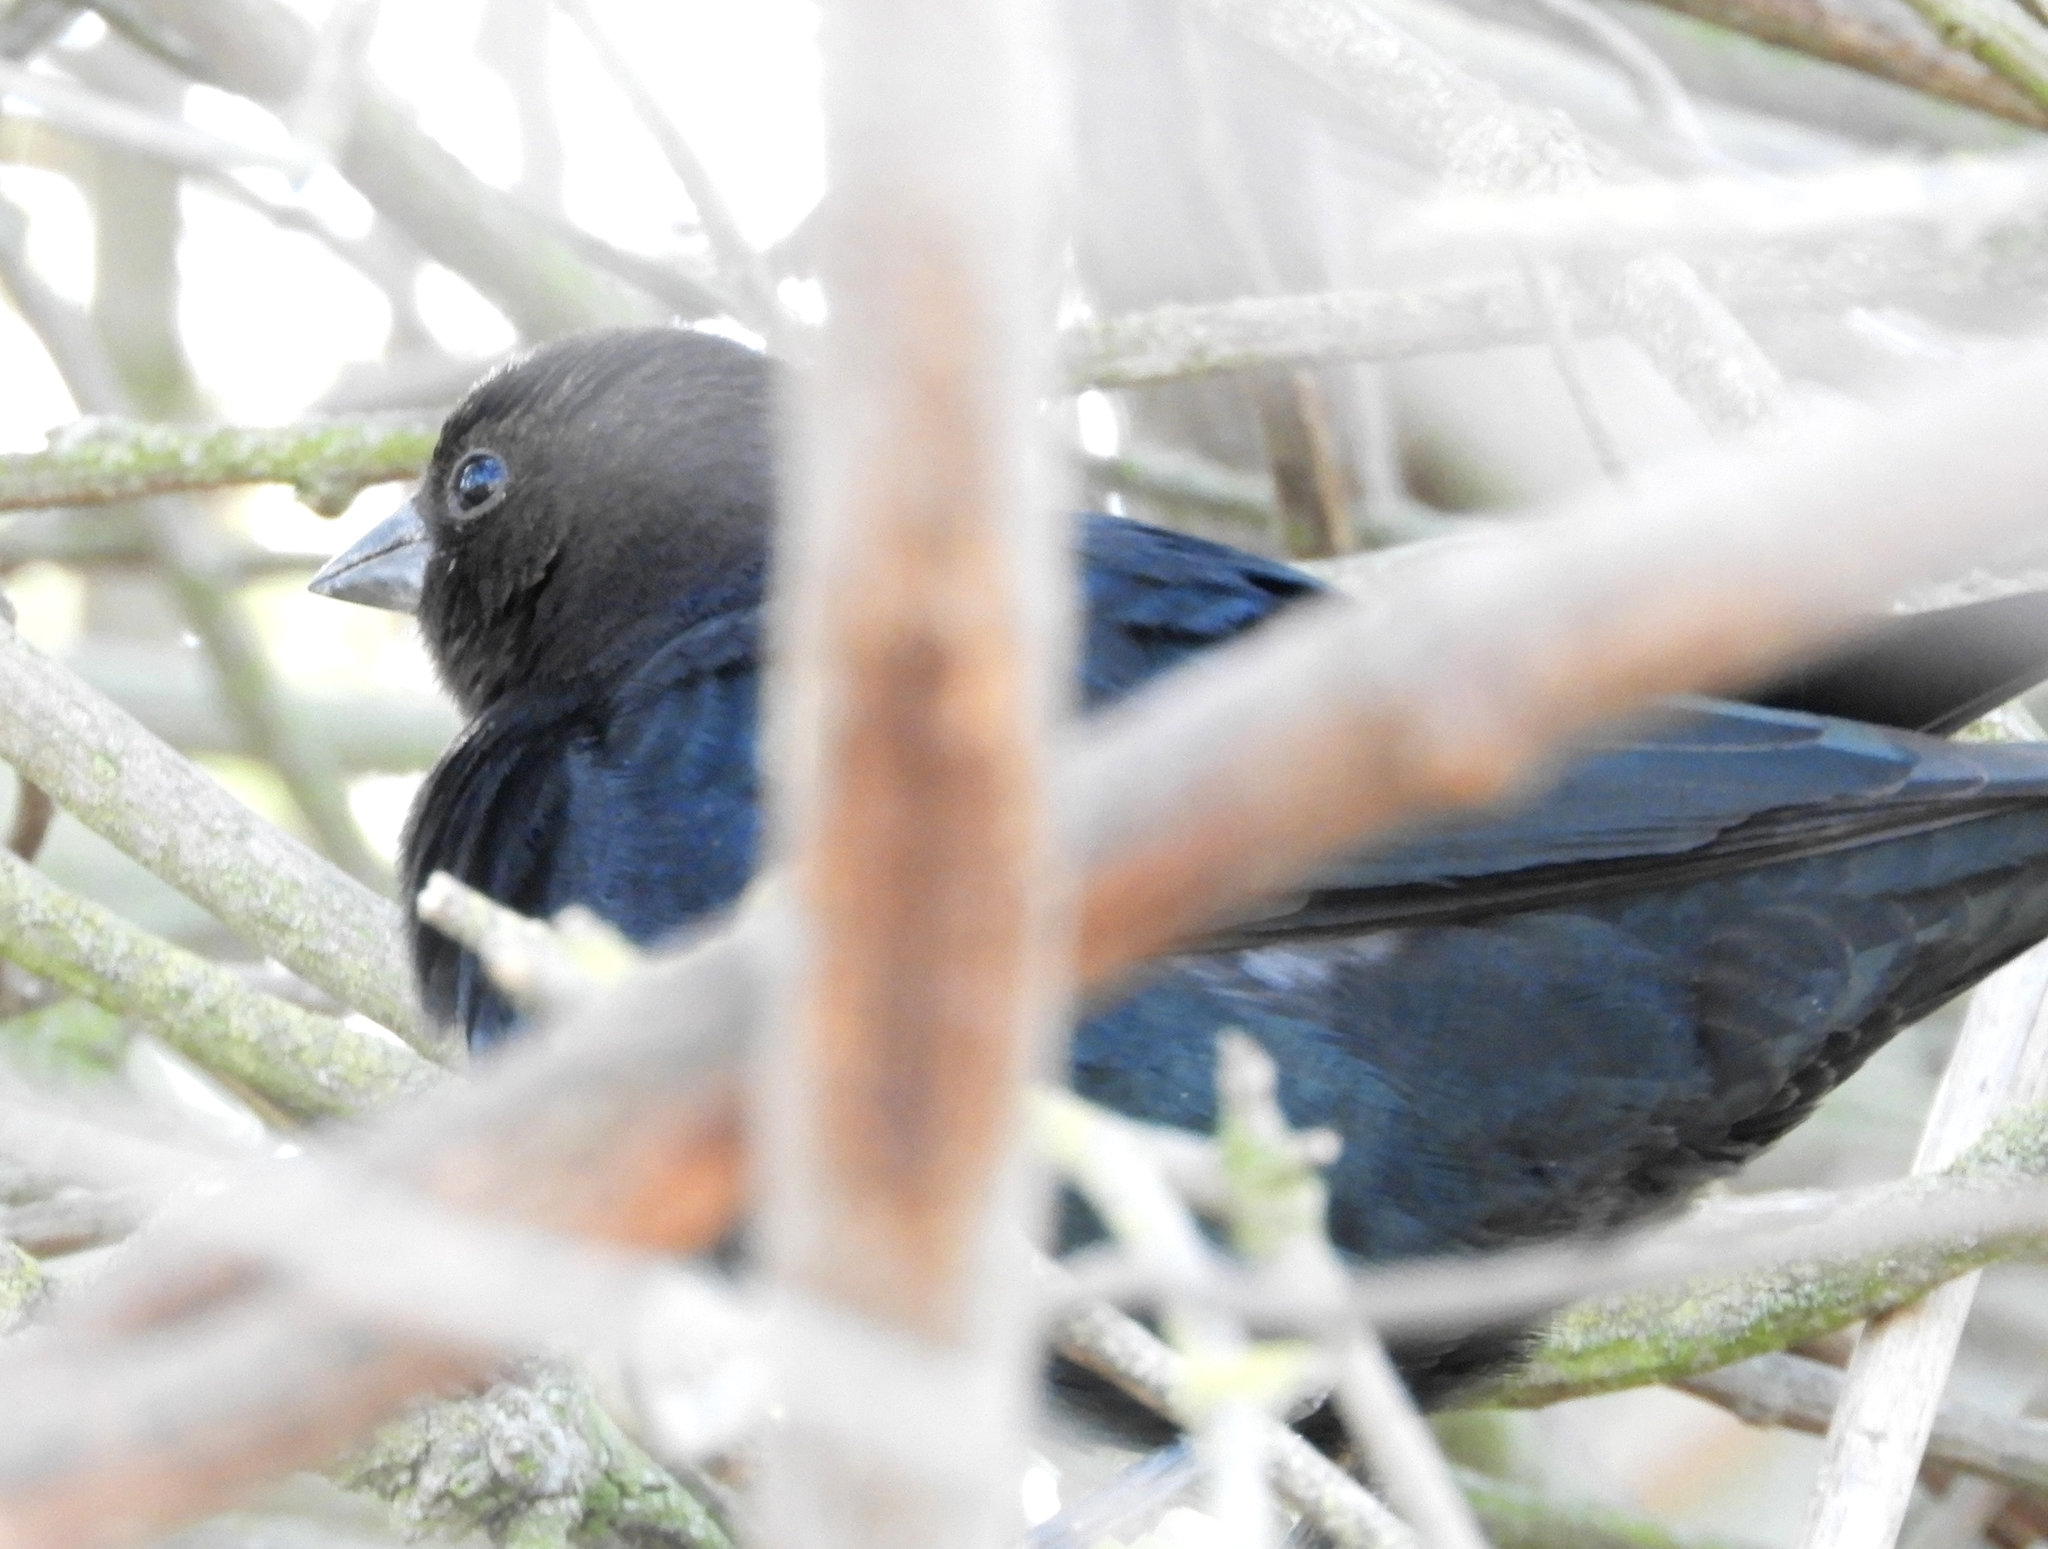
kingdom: Animalia
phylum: Chordata
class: Aves
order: Passeriformes
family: Icteridae
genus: Molothrus
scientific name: Molothrus ater
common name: Brown-headed cowbird
